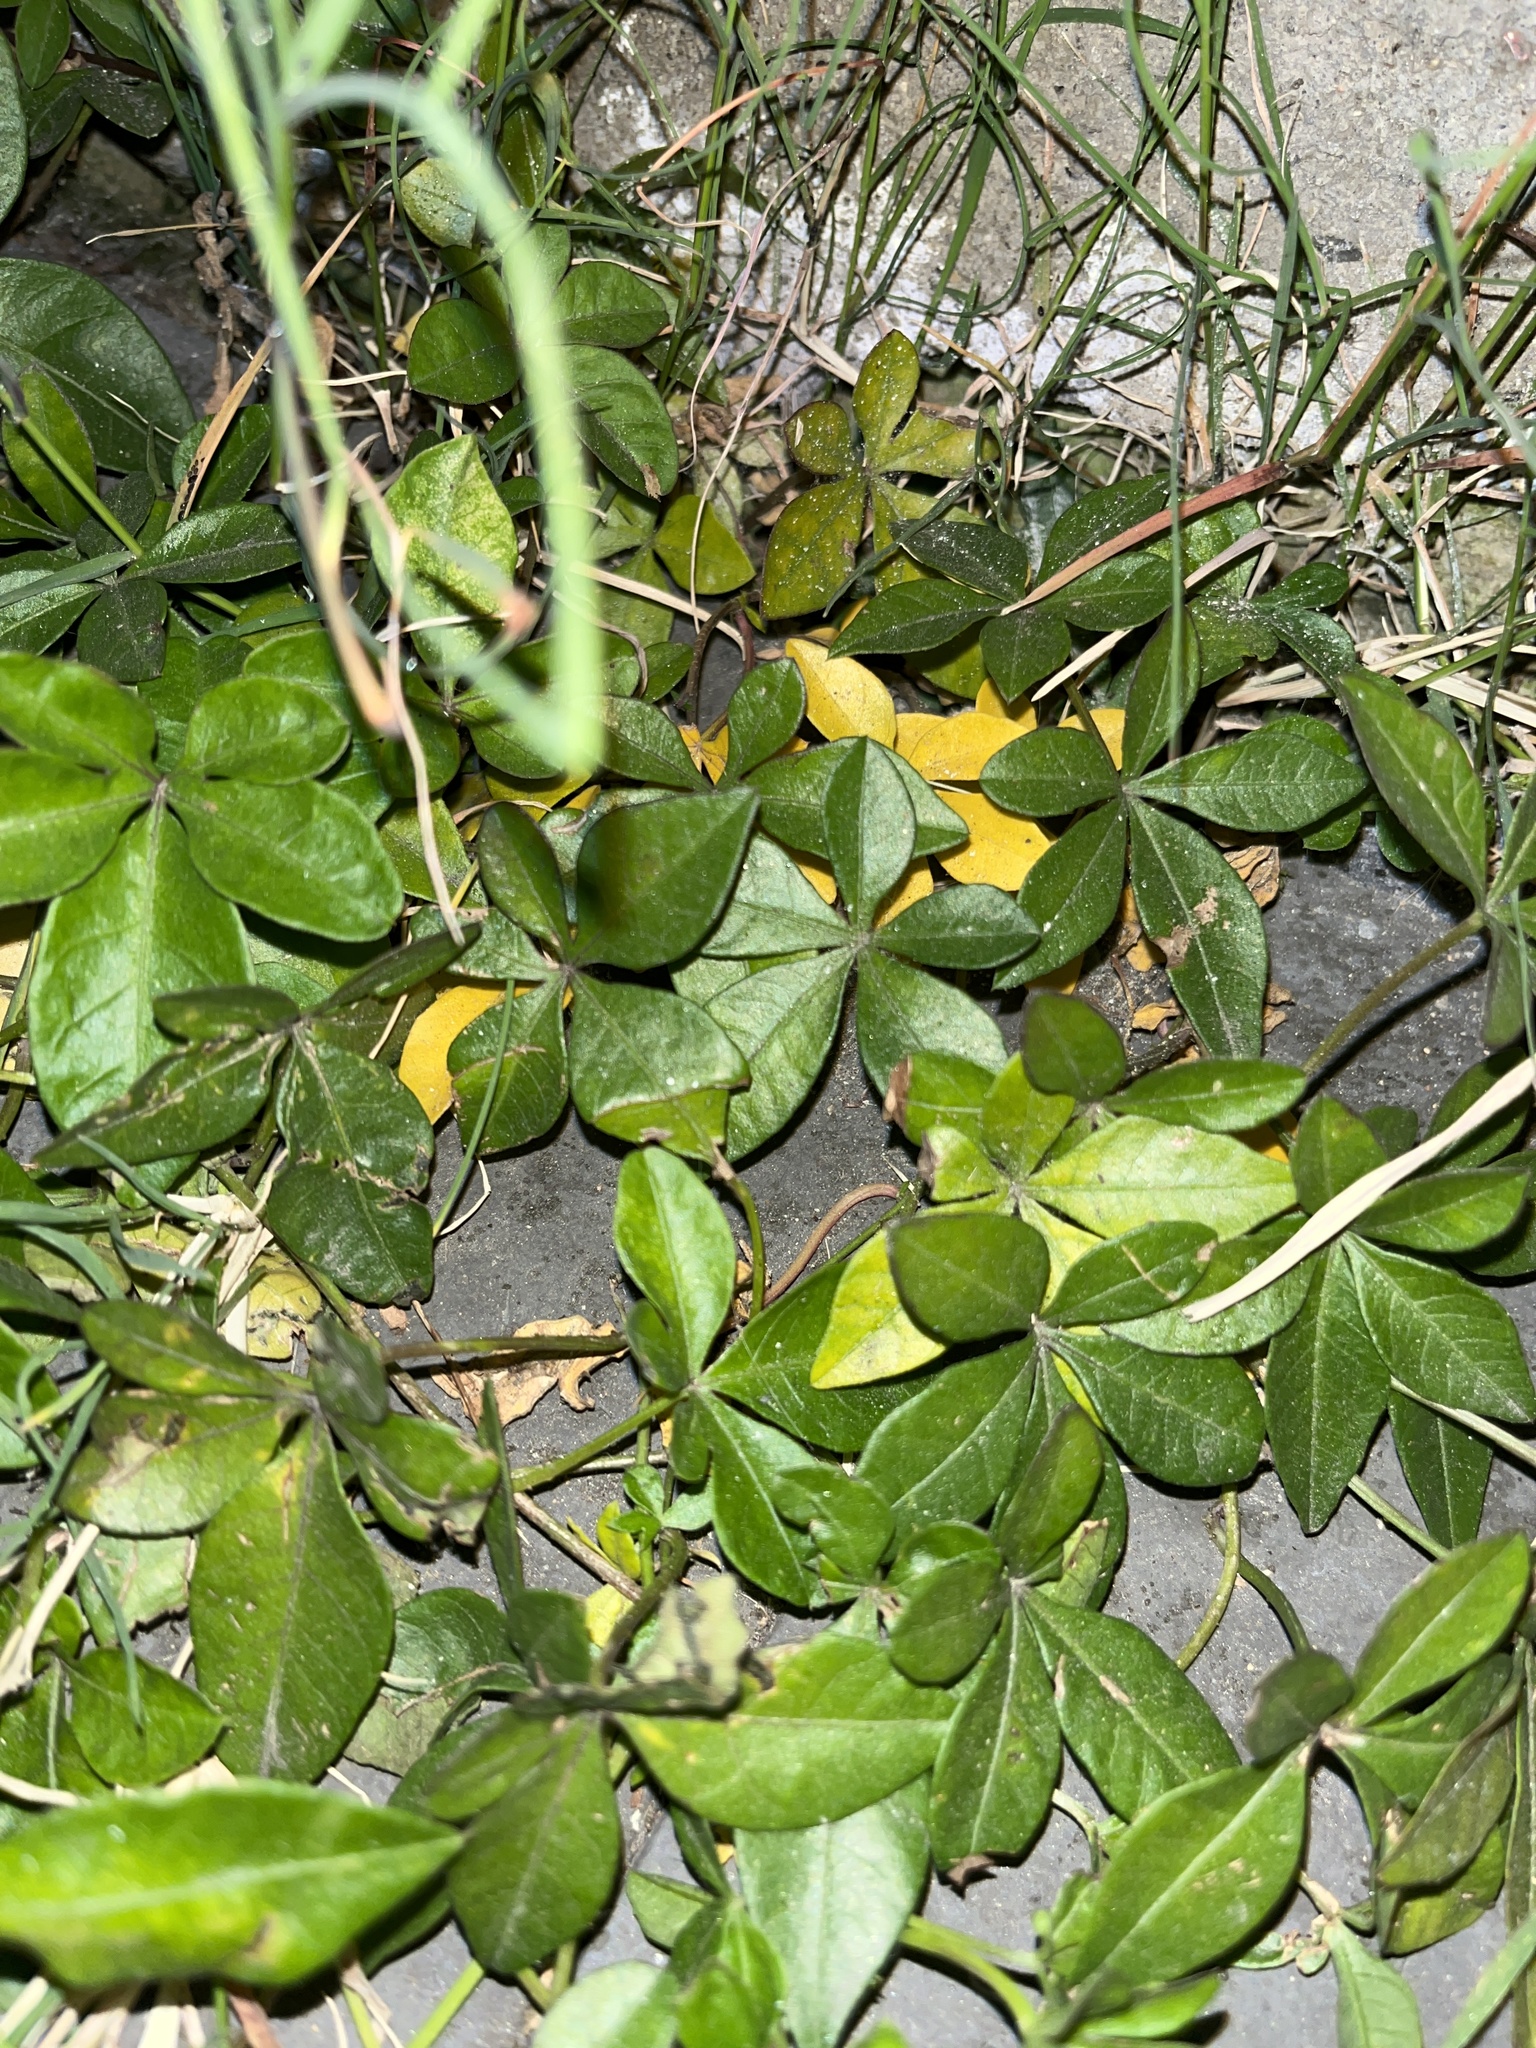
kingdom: Plantae
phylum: Tracheophyta
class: Magnoliopsida
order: Solanales
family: Convolvulaceae
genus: Ipomoea
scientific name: Ipomoea cairica
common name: Mile a minute vine
